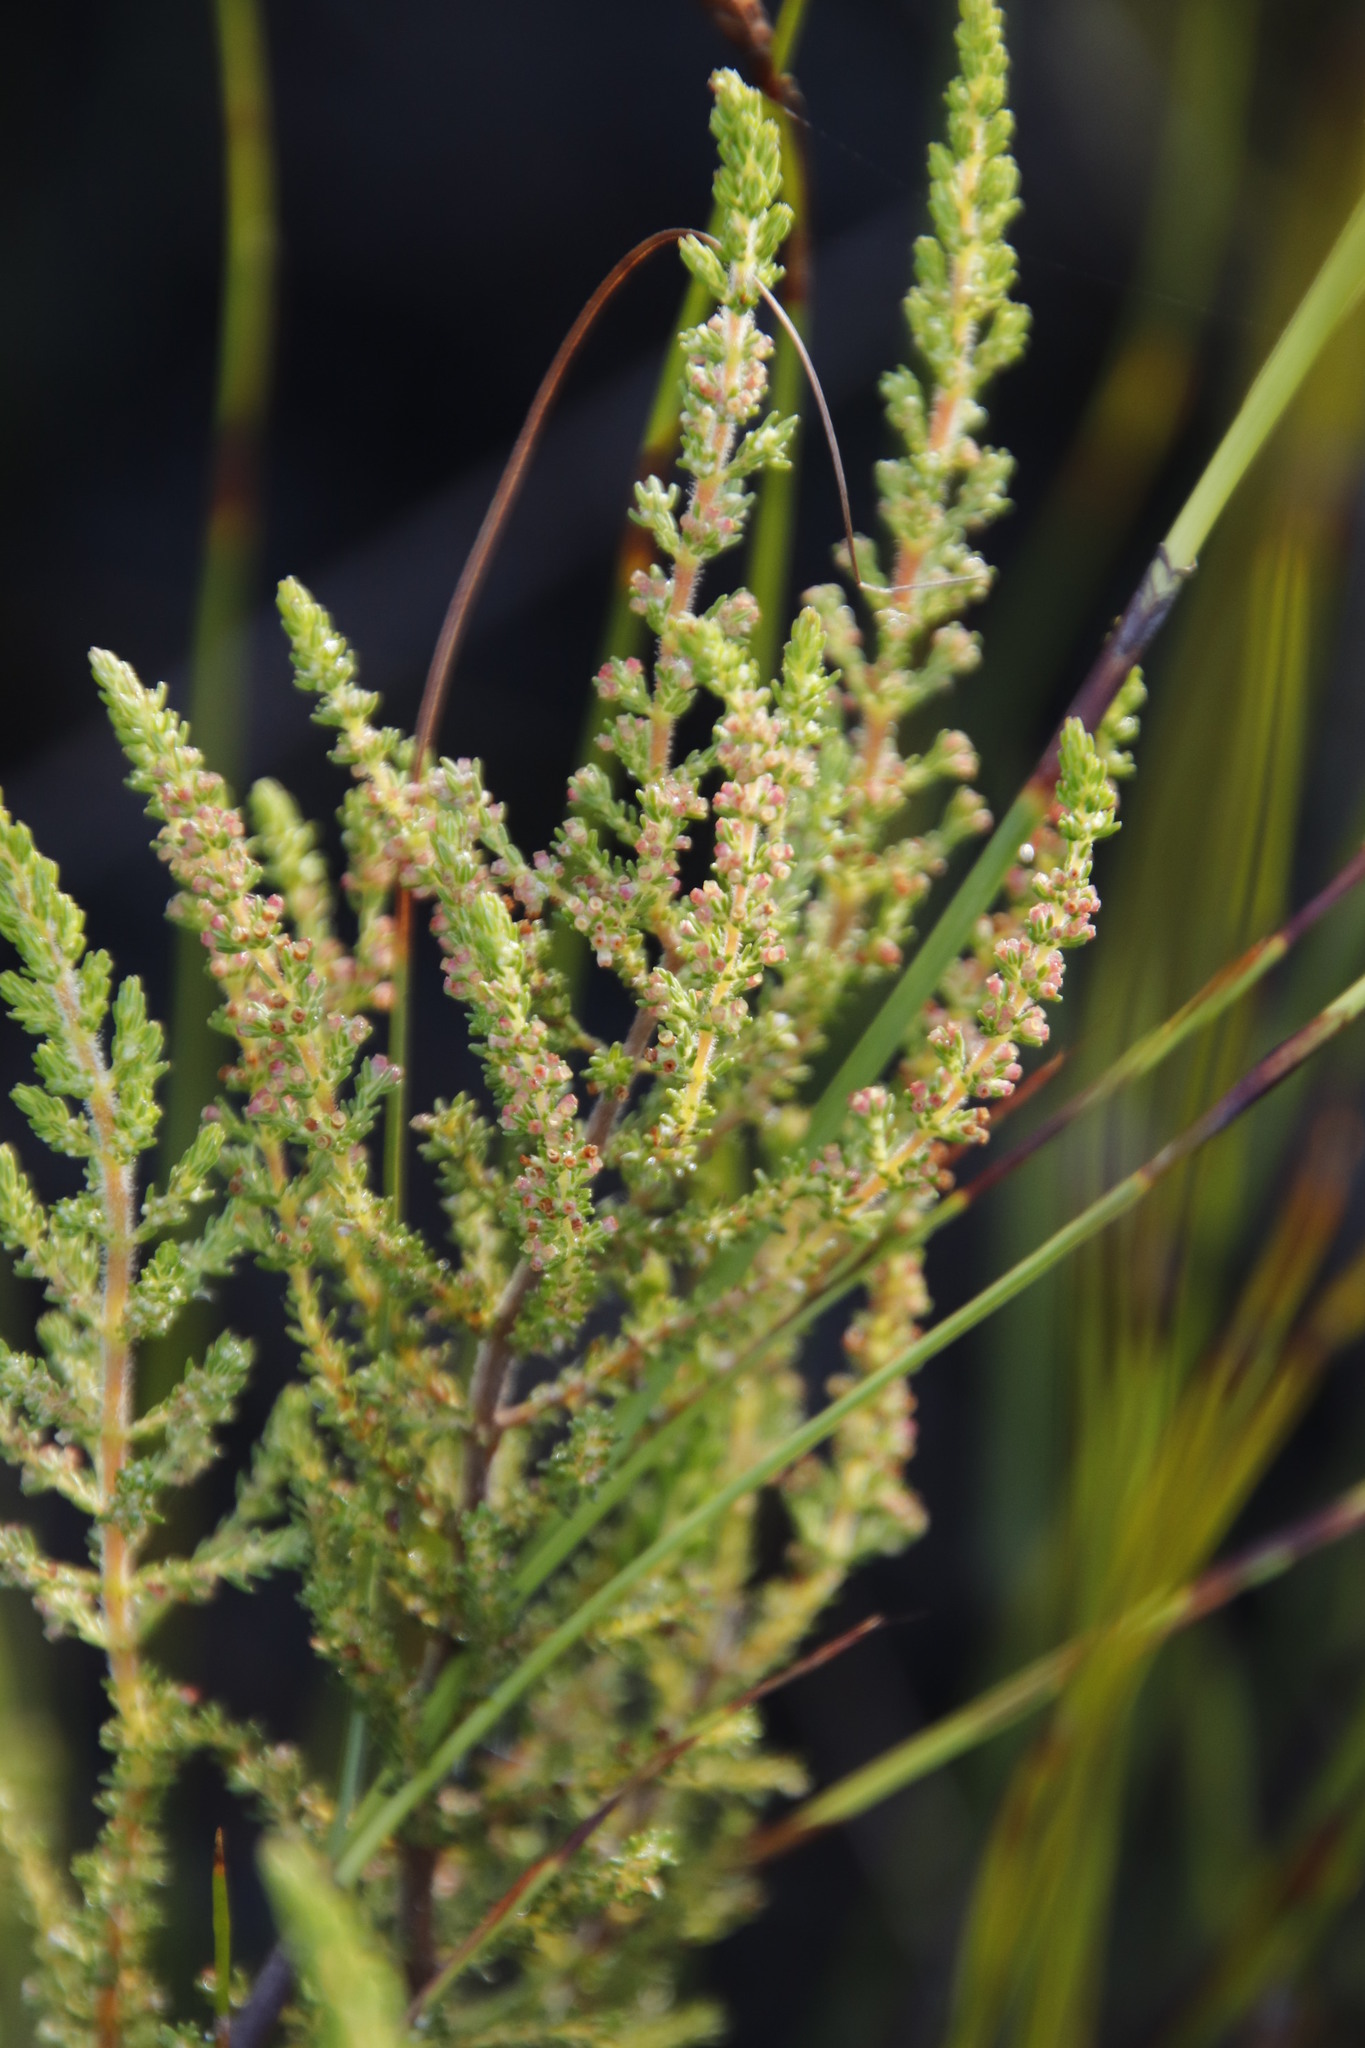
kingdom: Plantae
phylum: Tracheophyta
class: Magnoliopsida
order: Ericales
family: Ericaceae
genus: Erica
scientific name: Erica muscosa
